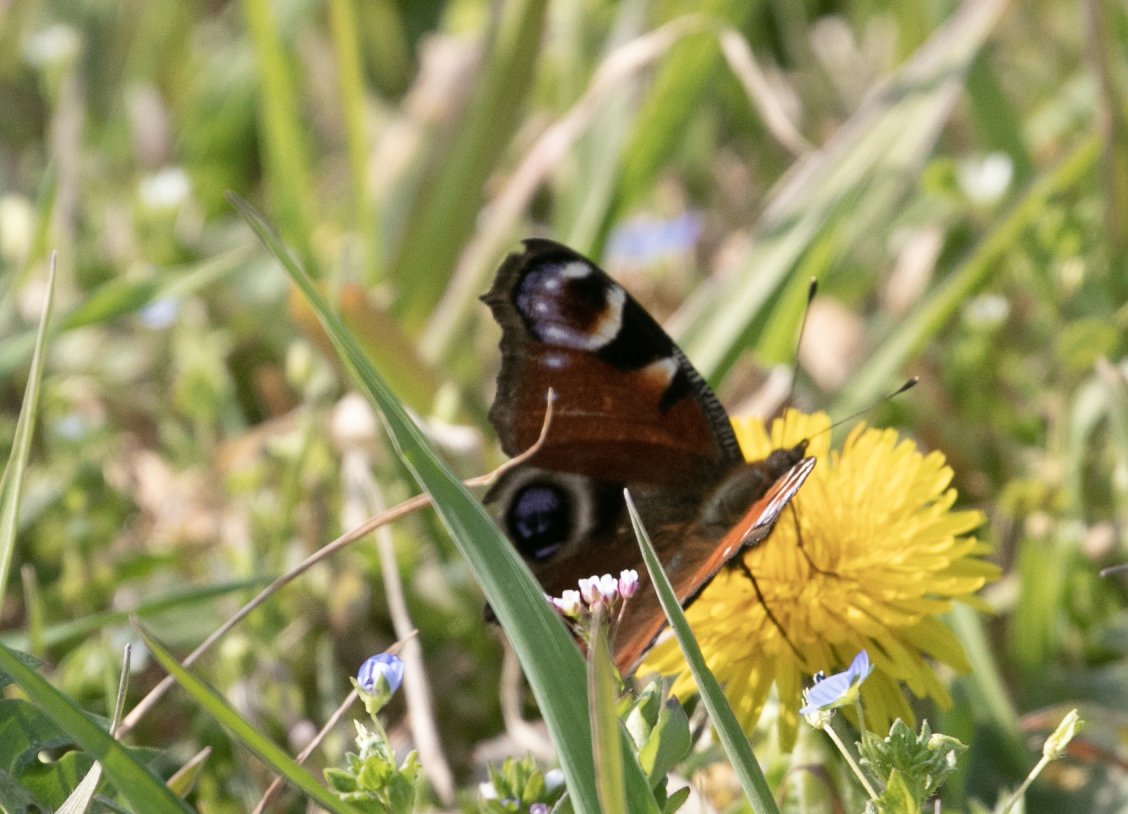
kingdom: Animalia
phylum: Arthropoda
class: Insecta
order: Lepidoptera
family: Nymphalidae
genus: Aglais
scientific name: Aglais io
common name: Peacock
